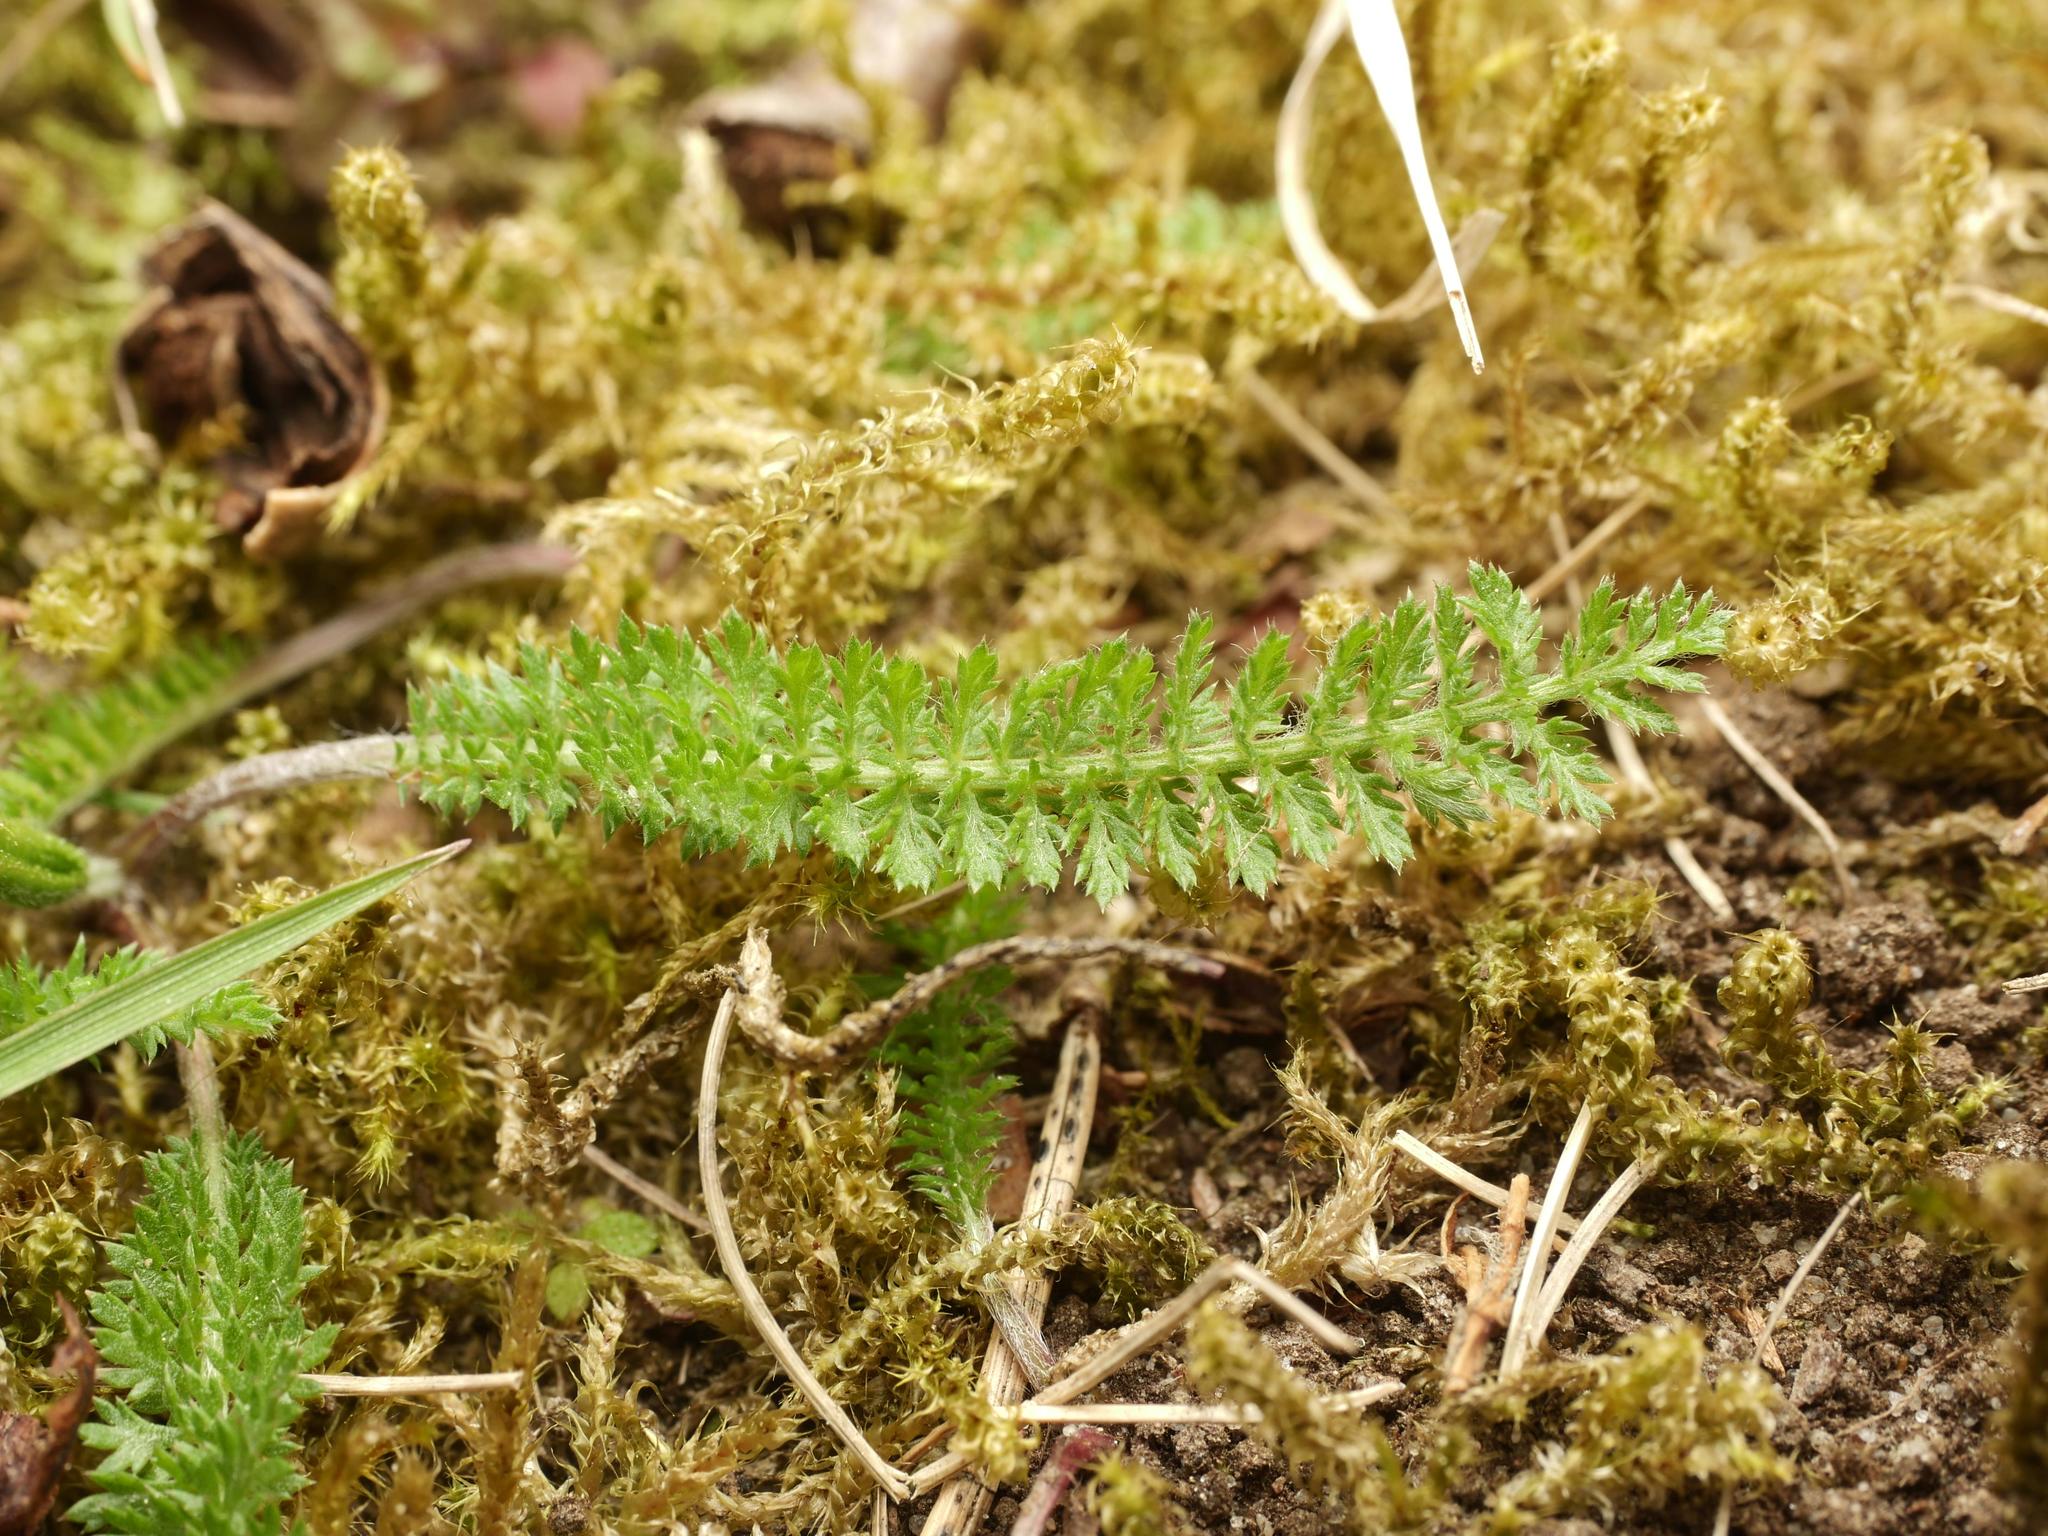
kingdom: Plantae
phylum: Tracheophyta
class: Magnoliopsida
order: Asterales
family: Asteraceae
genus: Achillea
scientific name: Achillea millefolium
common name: Yarrow
